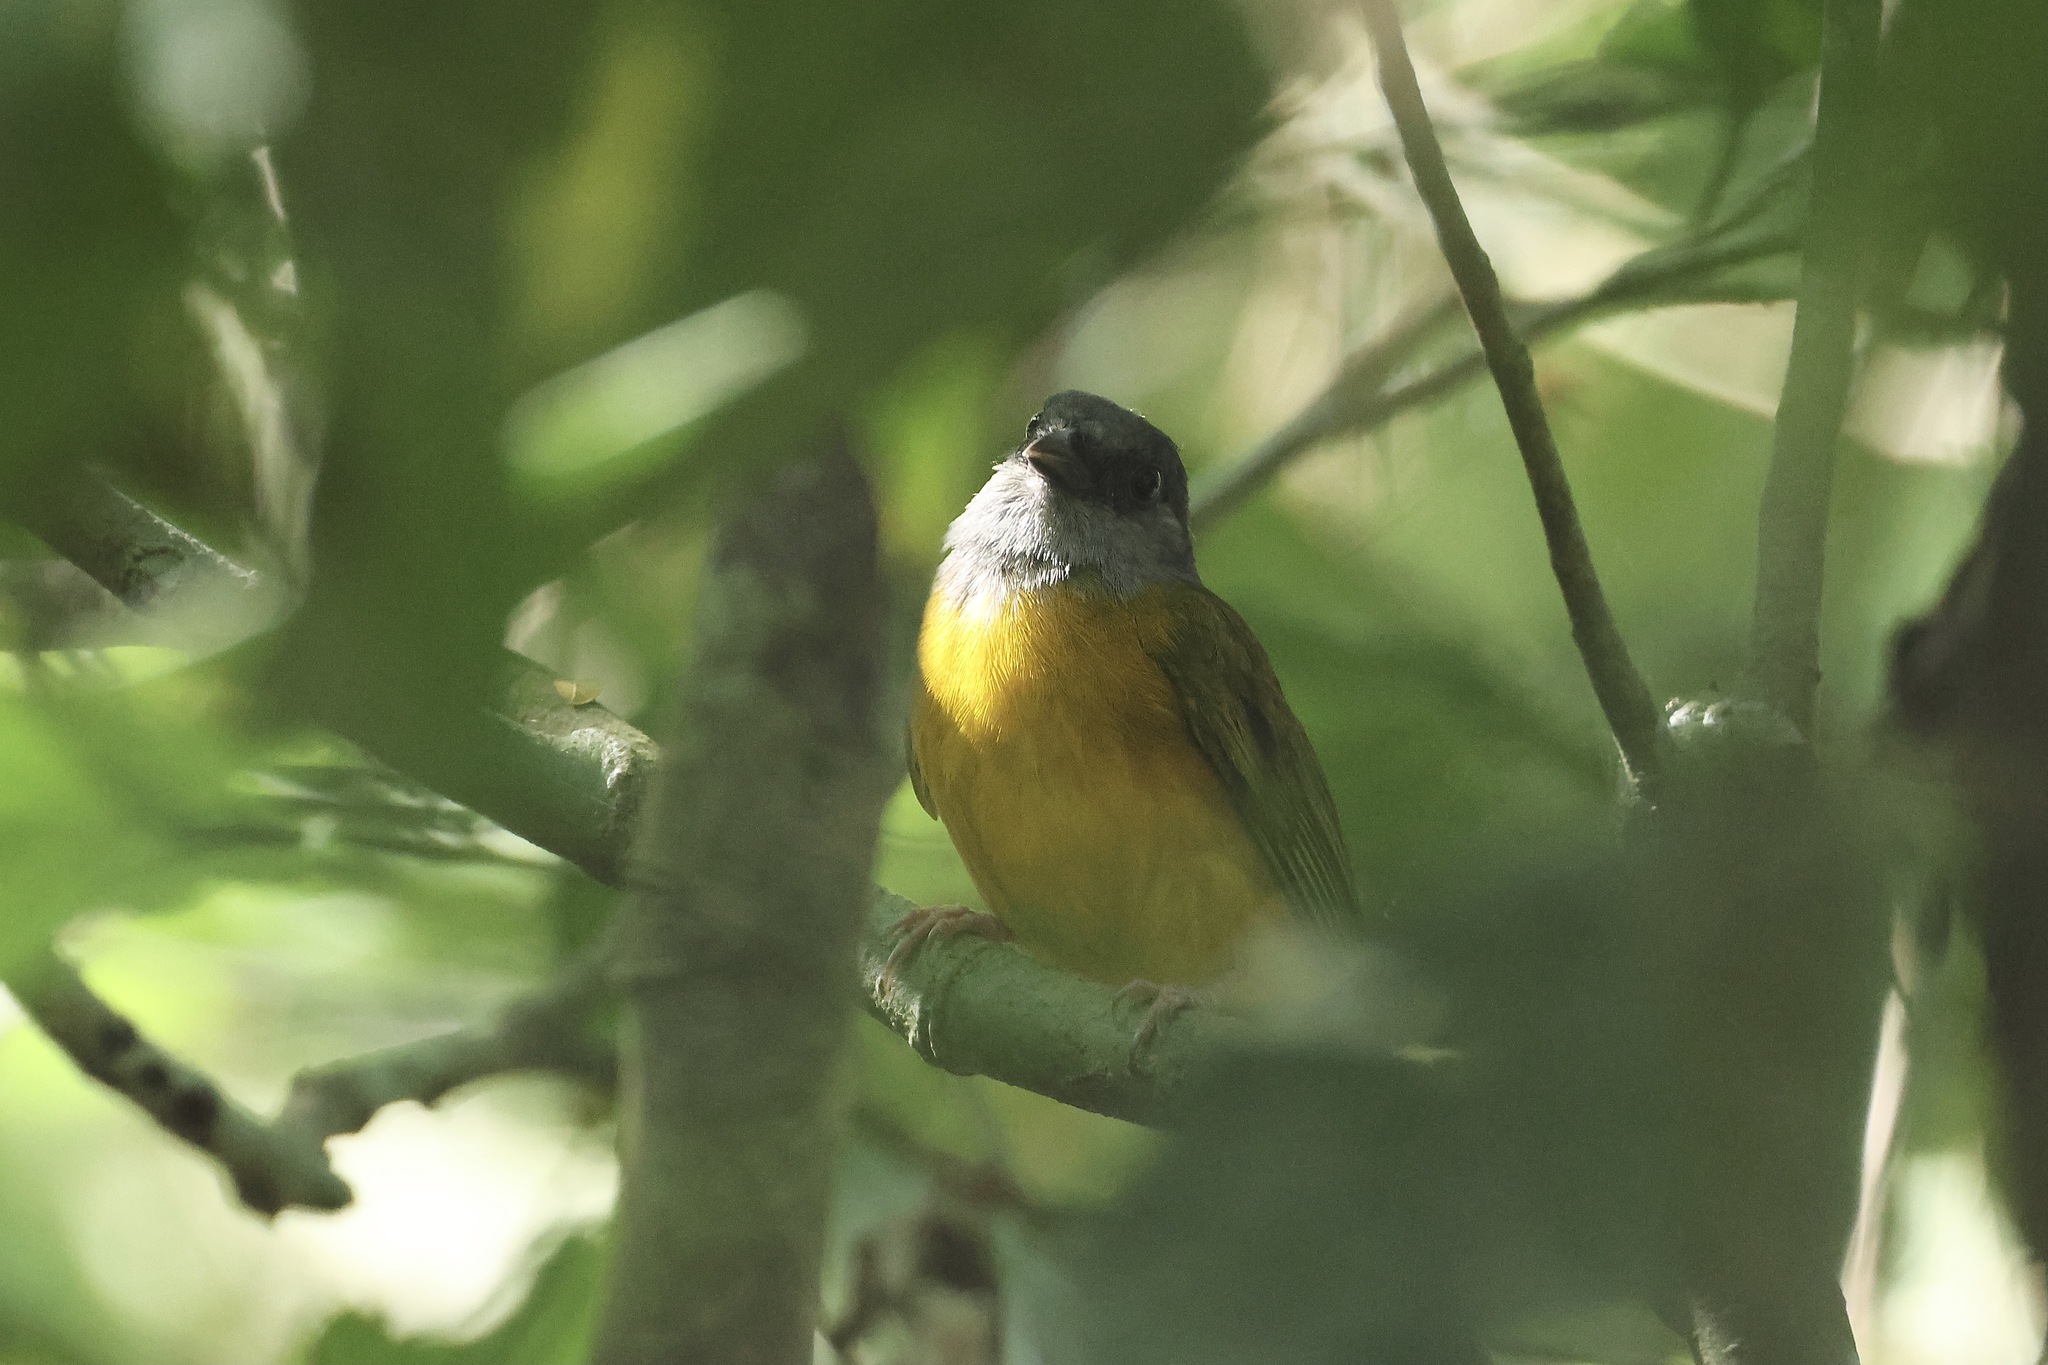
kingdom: Animalia
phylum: Chordata
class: Aves
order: Passeriformes
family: Thraupidae
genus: Eucometis
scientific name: Eucometis penicillata
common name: Grey-headed tanager
